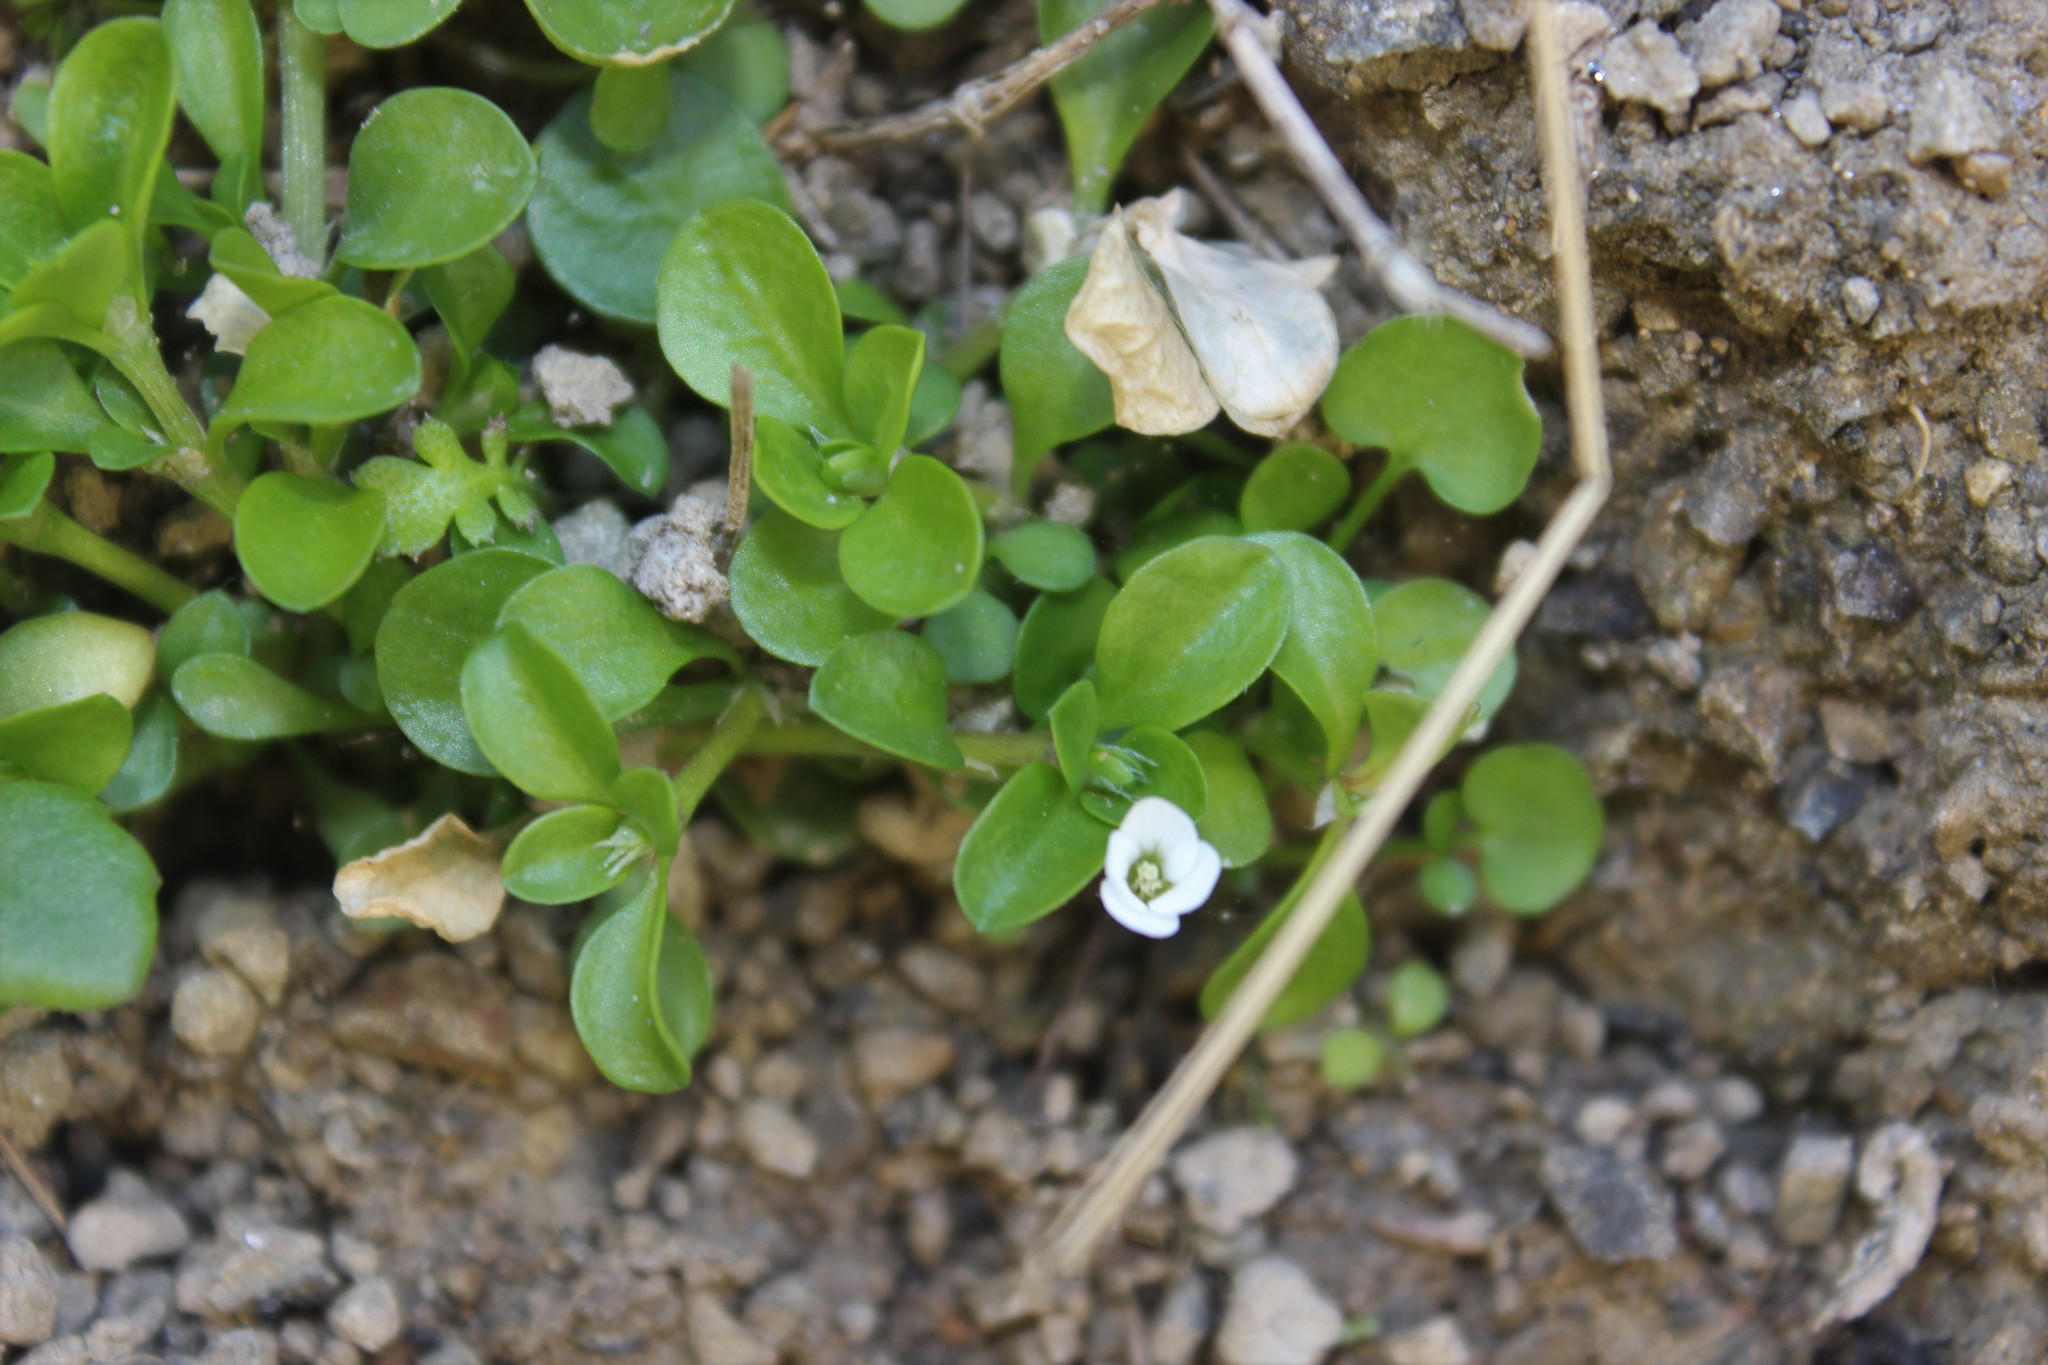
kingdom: Plantae
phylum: Tracheophyta
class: Magnoliopsida
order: Lamiales
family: Plantaginaceae
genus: Veronica
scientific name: Veronica serpyllifolia
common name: Thyme-leaved speedwell
